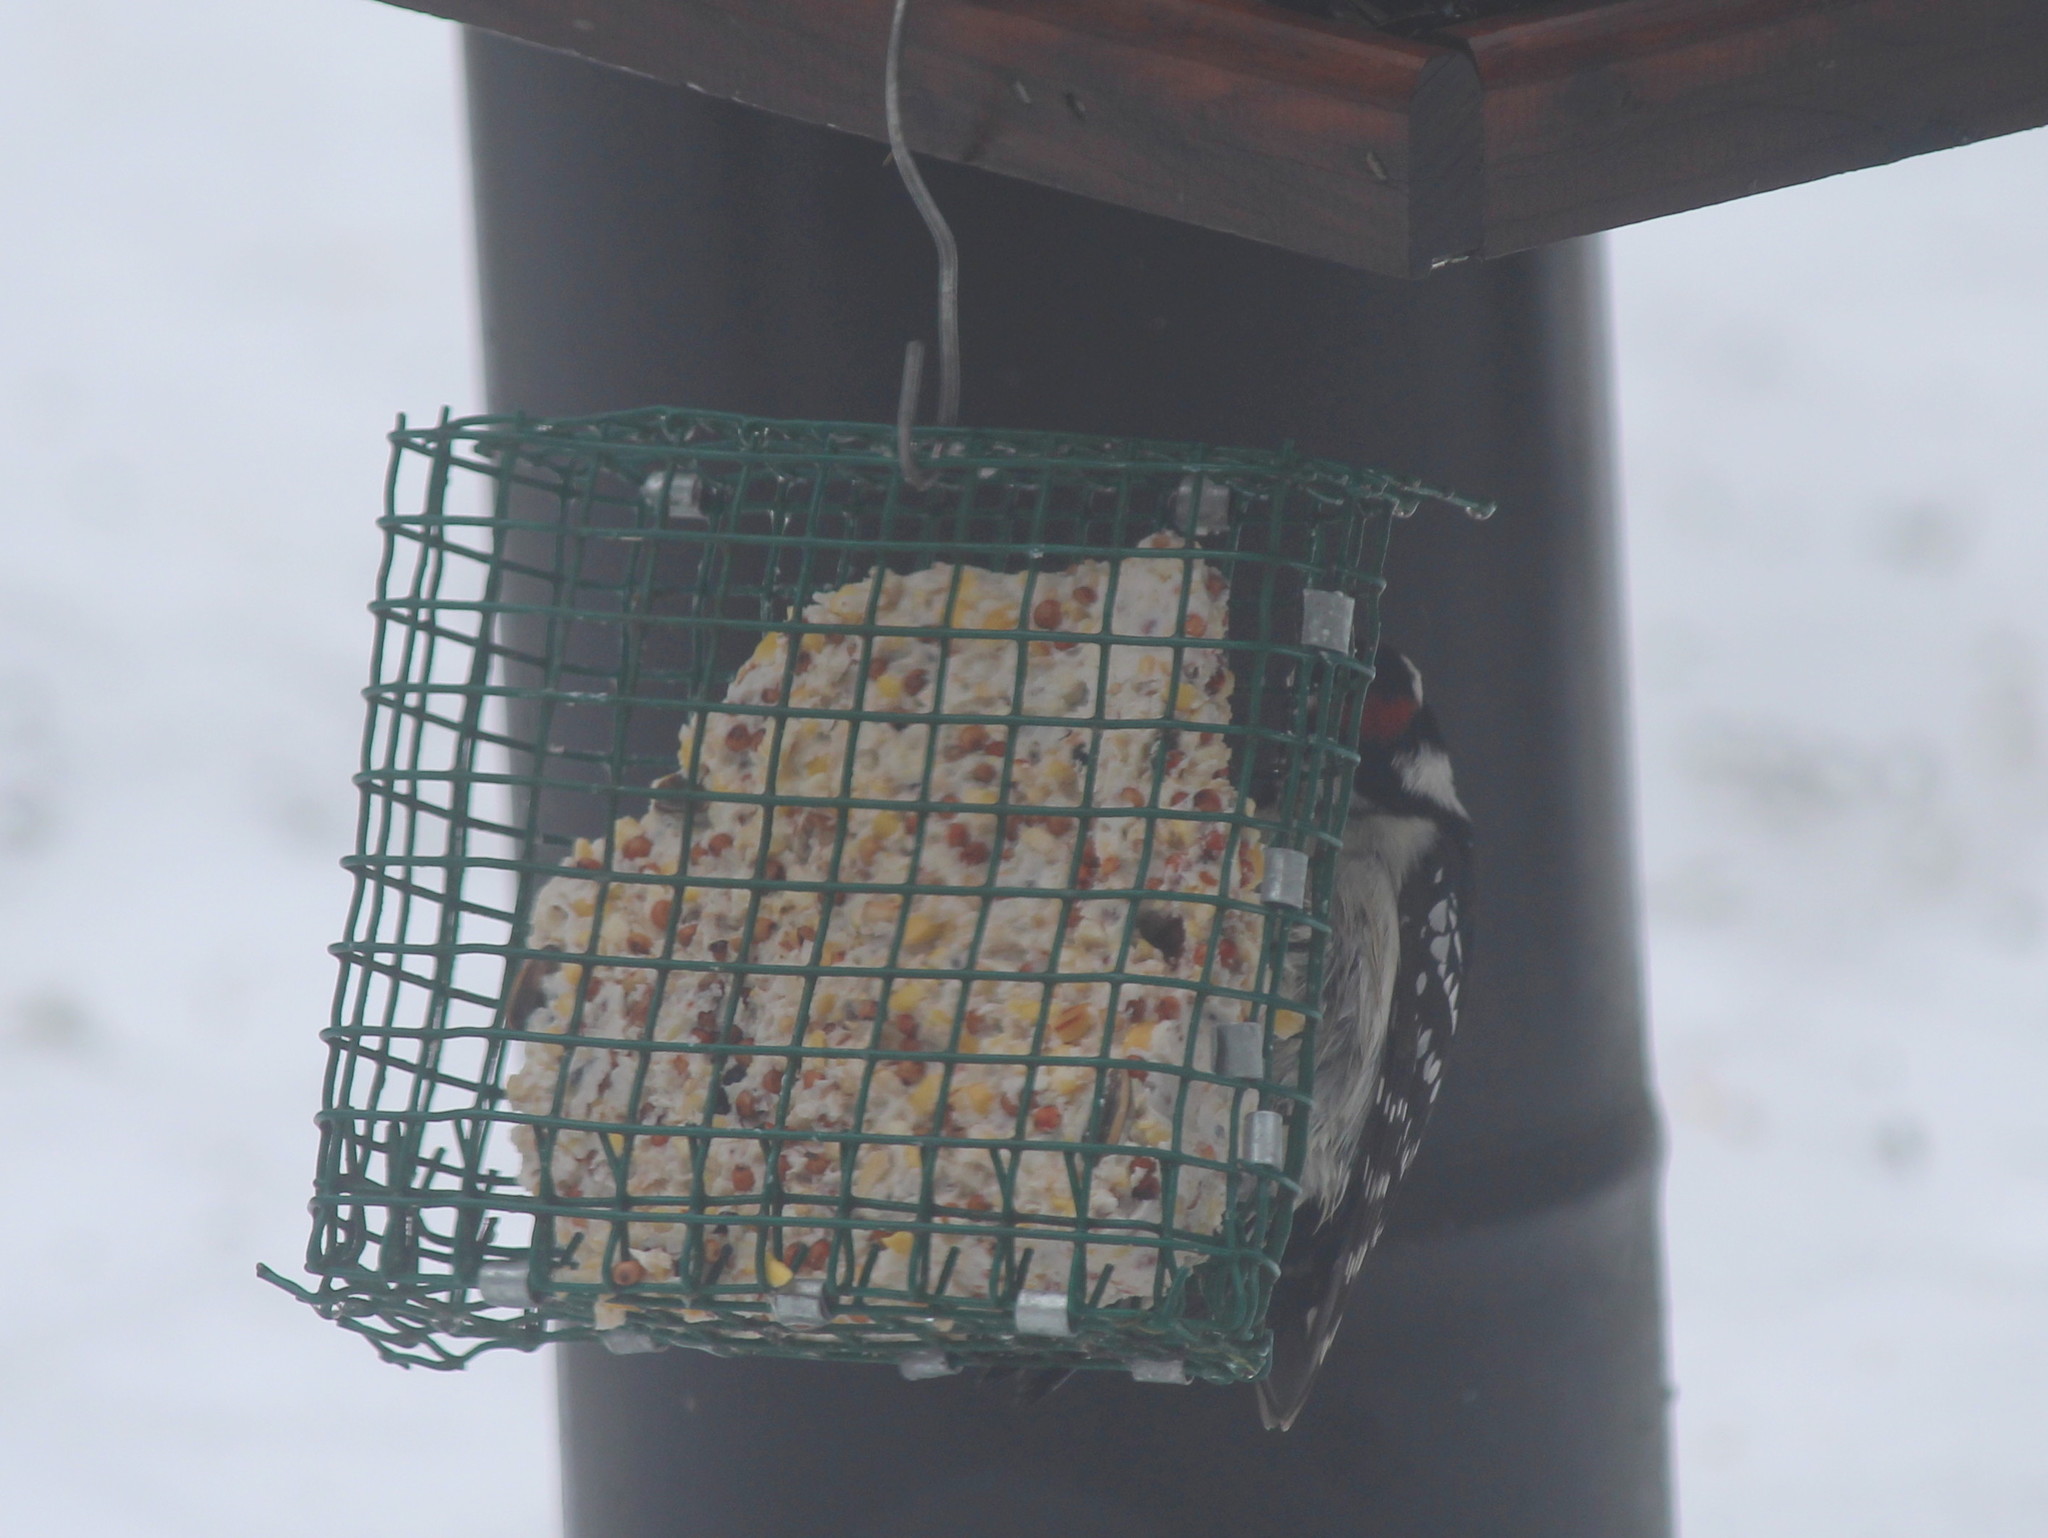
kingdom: Animalia
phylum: Chordata
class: Aves
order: Piciformes
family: Picidae
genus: Dryobates
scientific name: Dryobates pubescens
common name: Downy woodpecker
